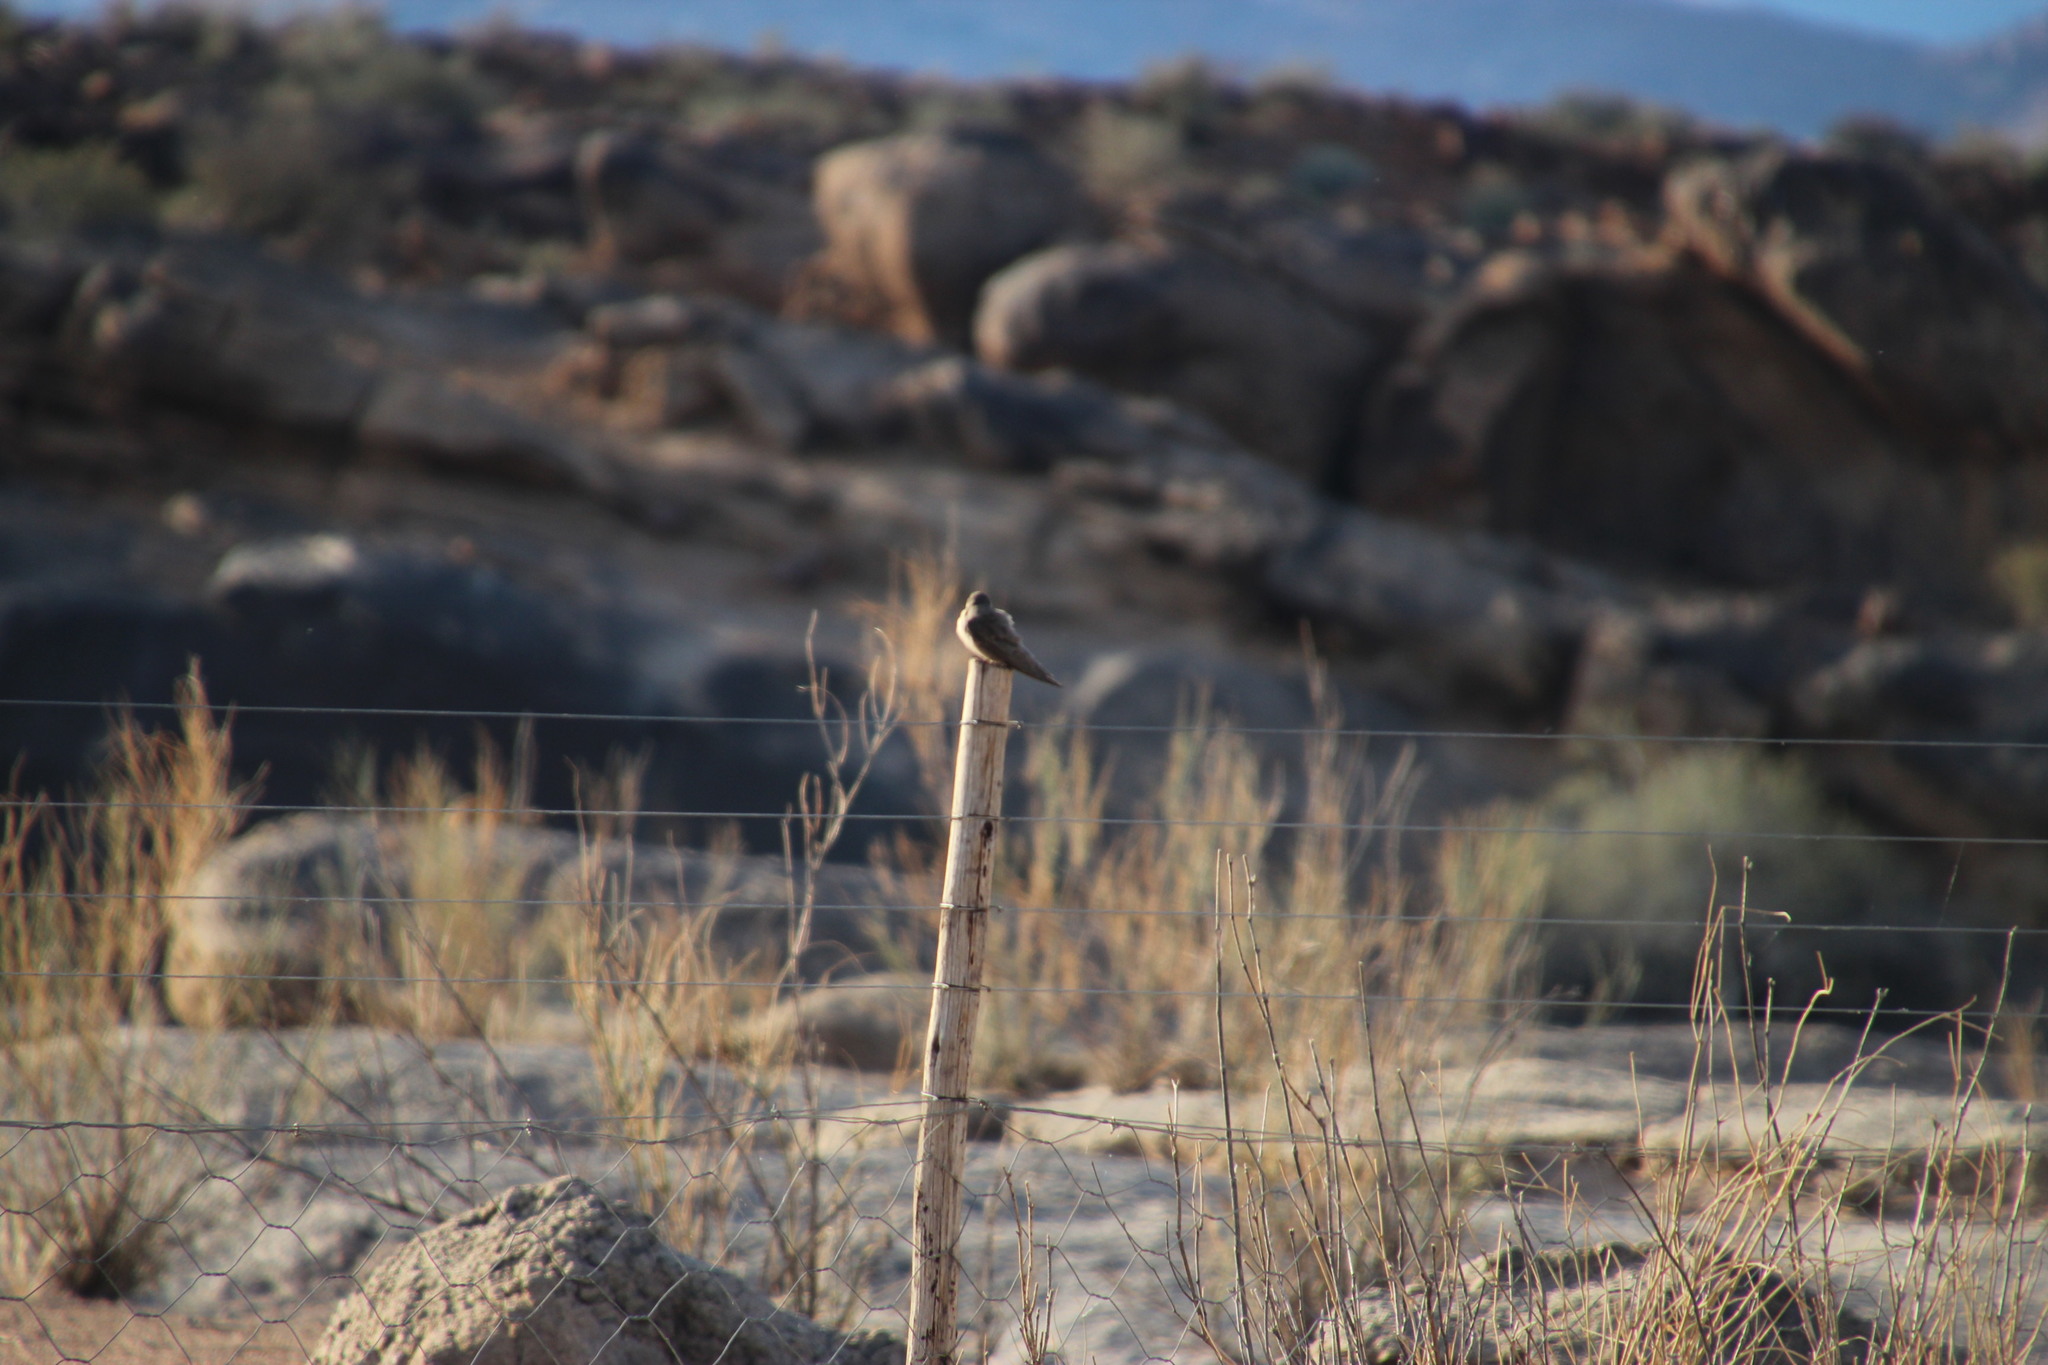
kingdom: Animalia
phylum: Chordata
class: Aves
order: Passeriformes
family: Hirundinidae
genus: Ptyonoprogne
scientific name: Ptyonoprogne fuligula
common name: Rock martin
